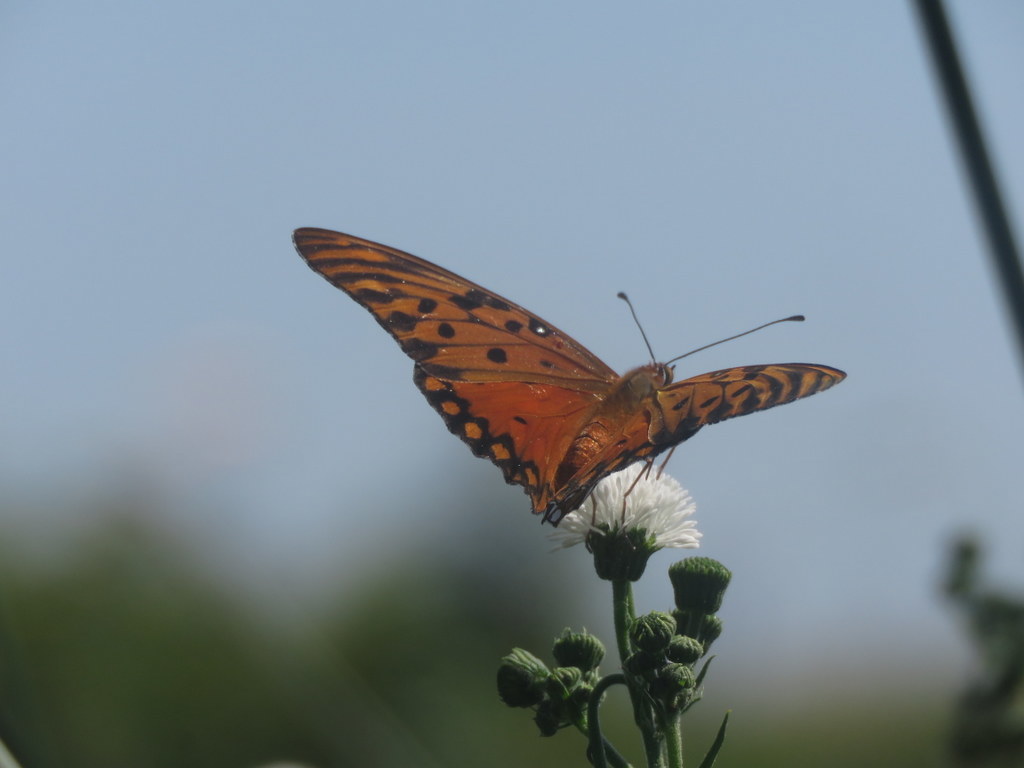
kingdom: Animalia
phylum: Arthropoda
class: Insecta
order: Lepidoptera
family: Nymphalidae
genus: Dione
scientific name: Dione vanillae
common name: Gulf fritillary
